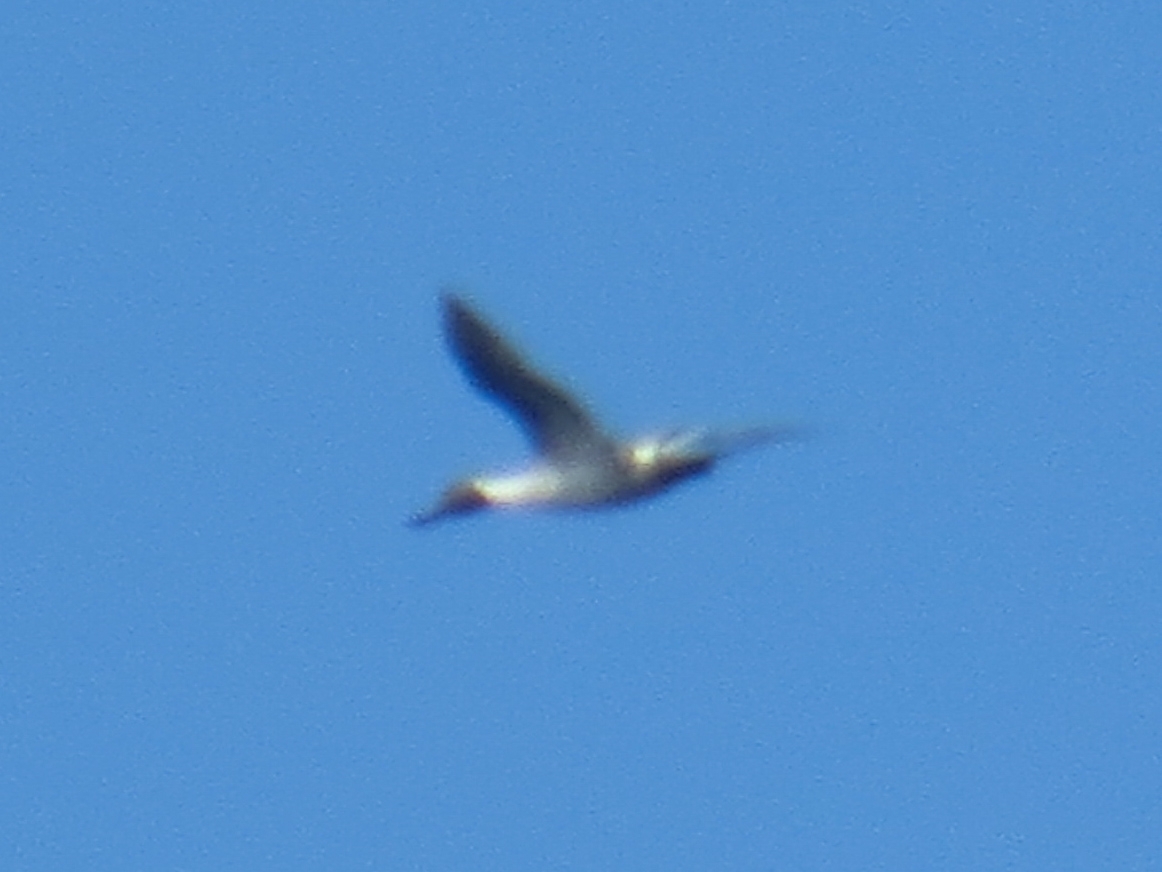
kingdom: Animalia
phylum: Chordata
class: Aves
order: Anseriformes
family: Anatidae
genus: Anas
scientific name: Anas acuta
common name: Northern pintail
